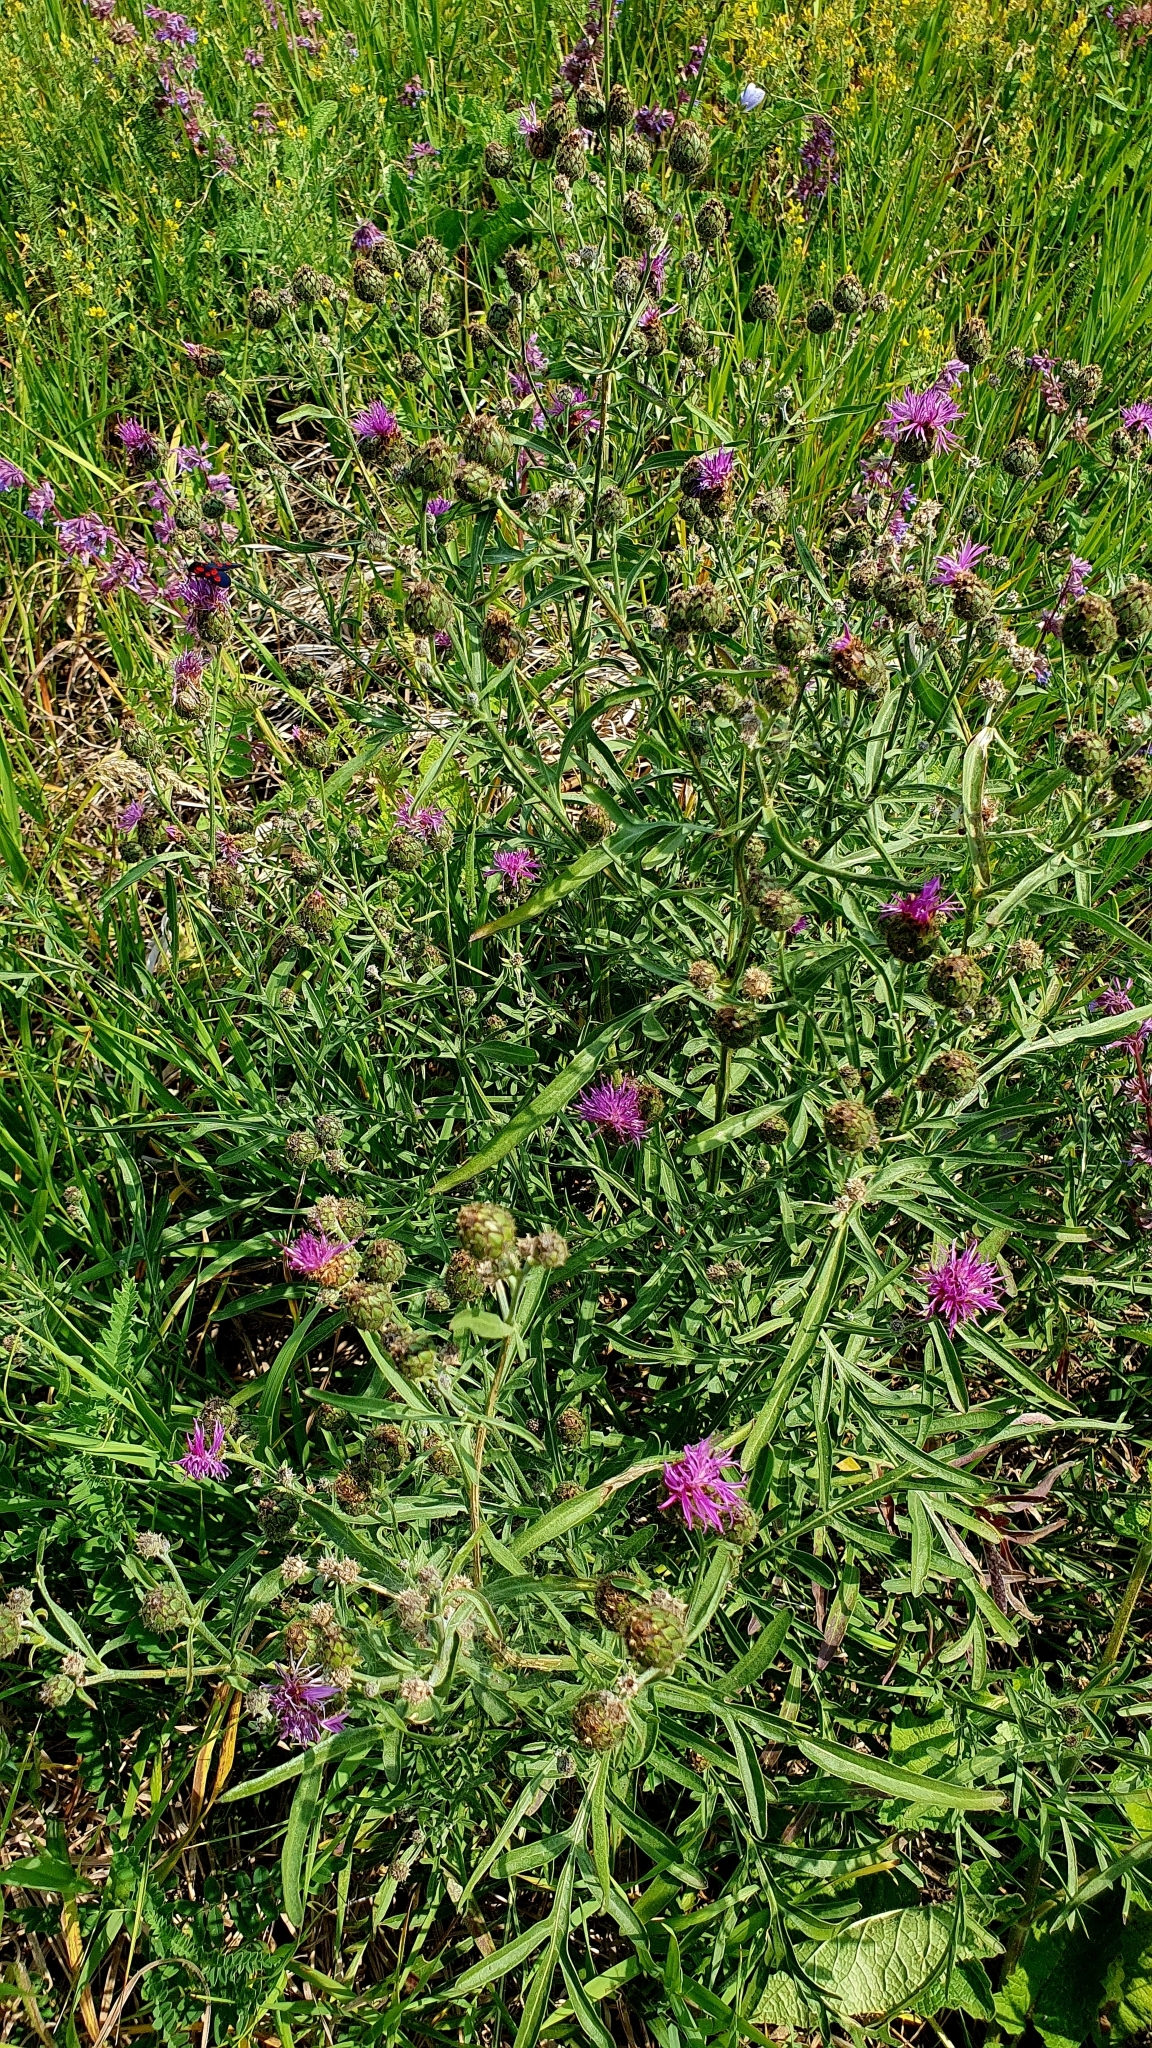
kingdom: Plantae
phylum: Tracheophyta
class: Magnoliopsida
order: Asterales
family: Asteraceae
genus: Centaurea
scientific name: Centaurea scabiosa
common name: Greater knapweed
